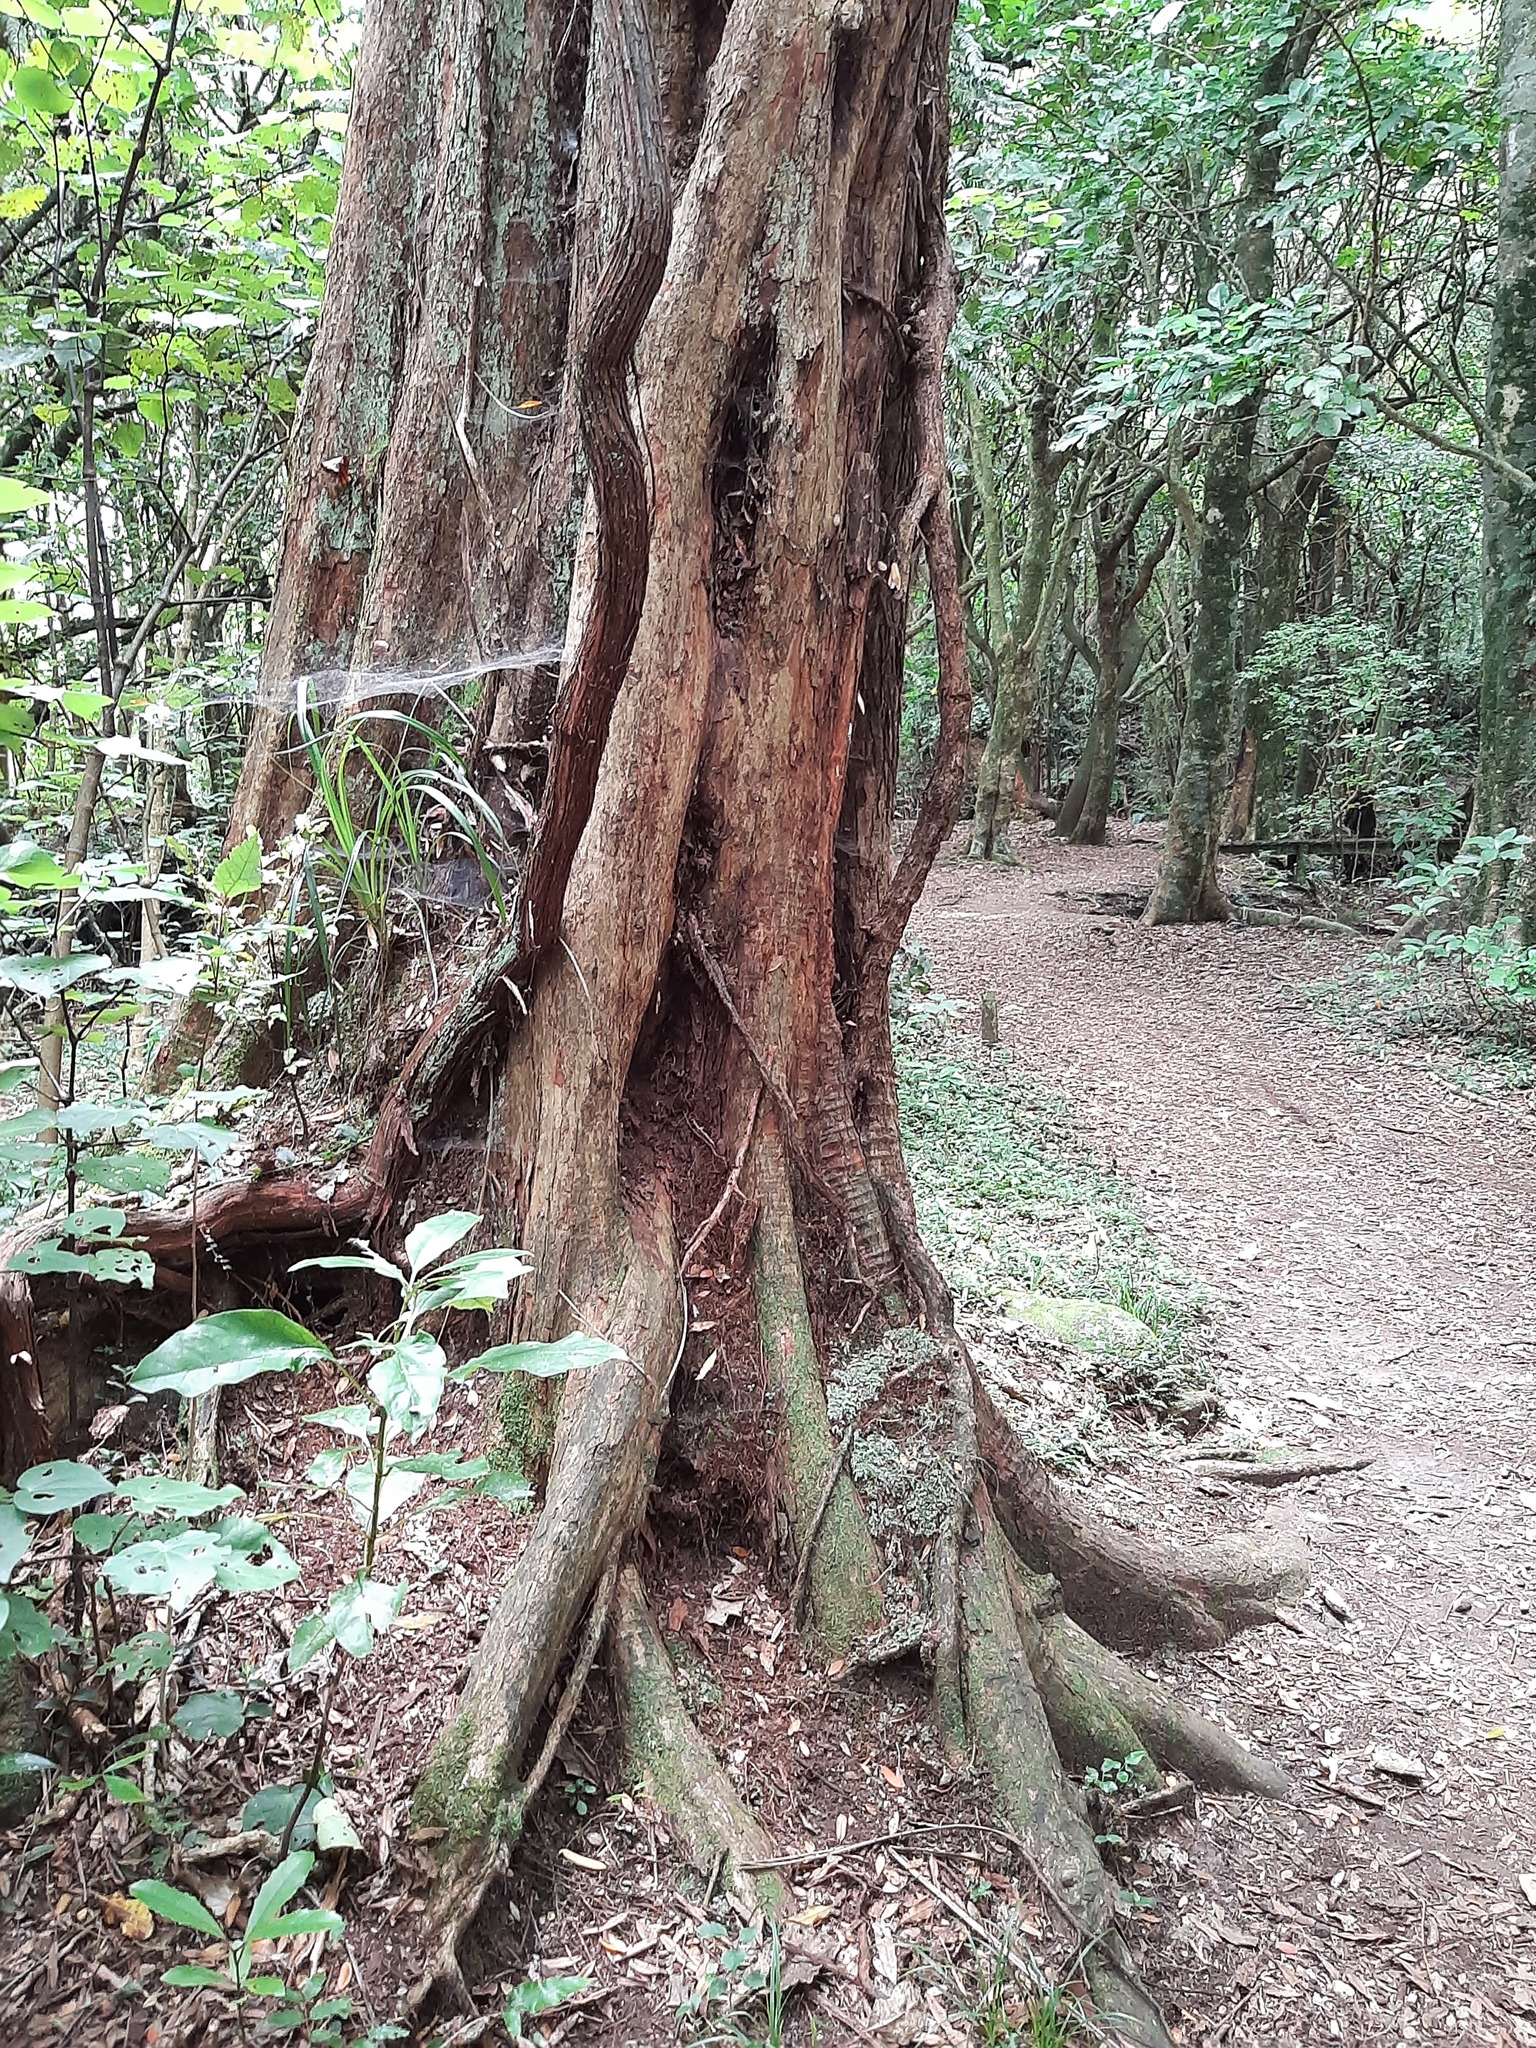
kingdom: Plantae
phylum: Tracheophyta
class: Magnoliopsida
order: Myrtales
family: Myrtaceae
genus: Metrosideros
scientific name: Metrosideros robusta
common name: Northern rata
